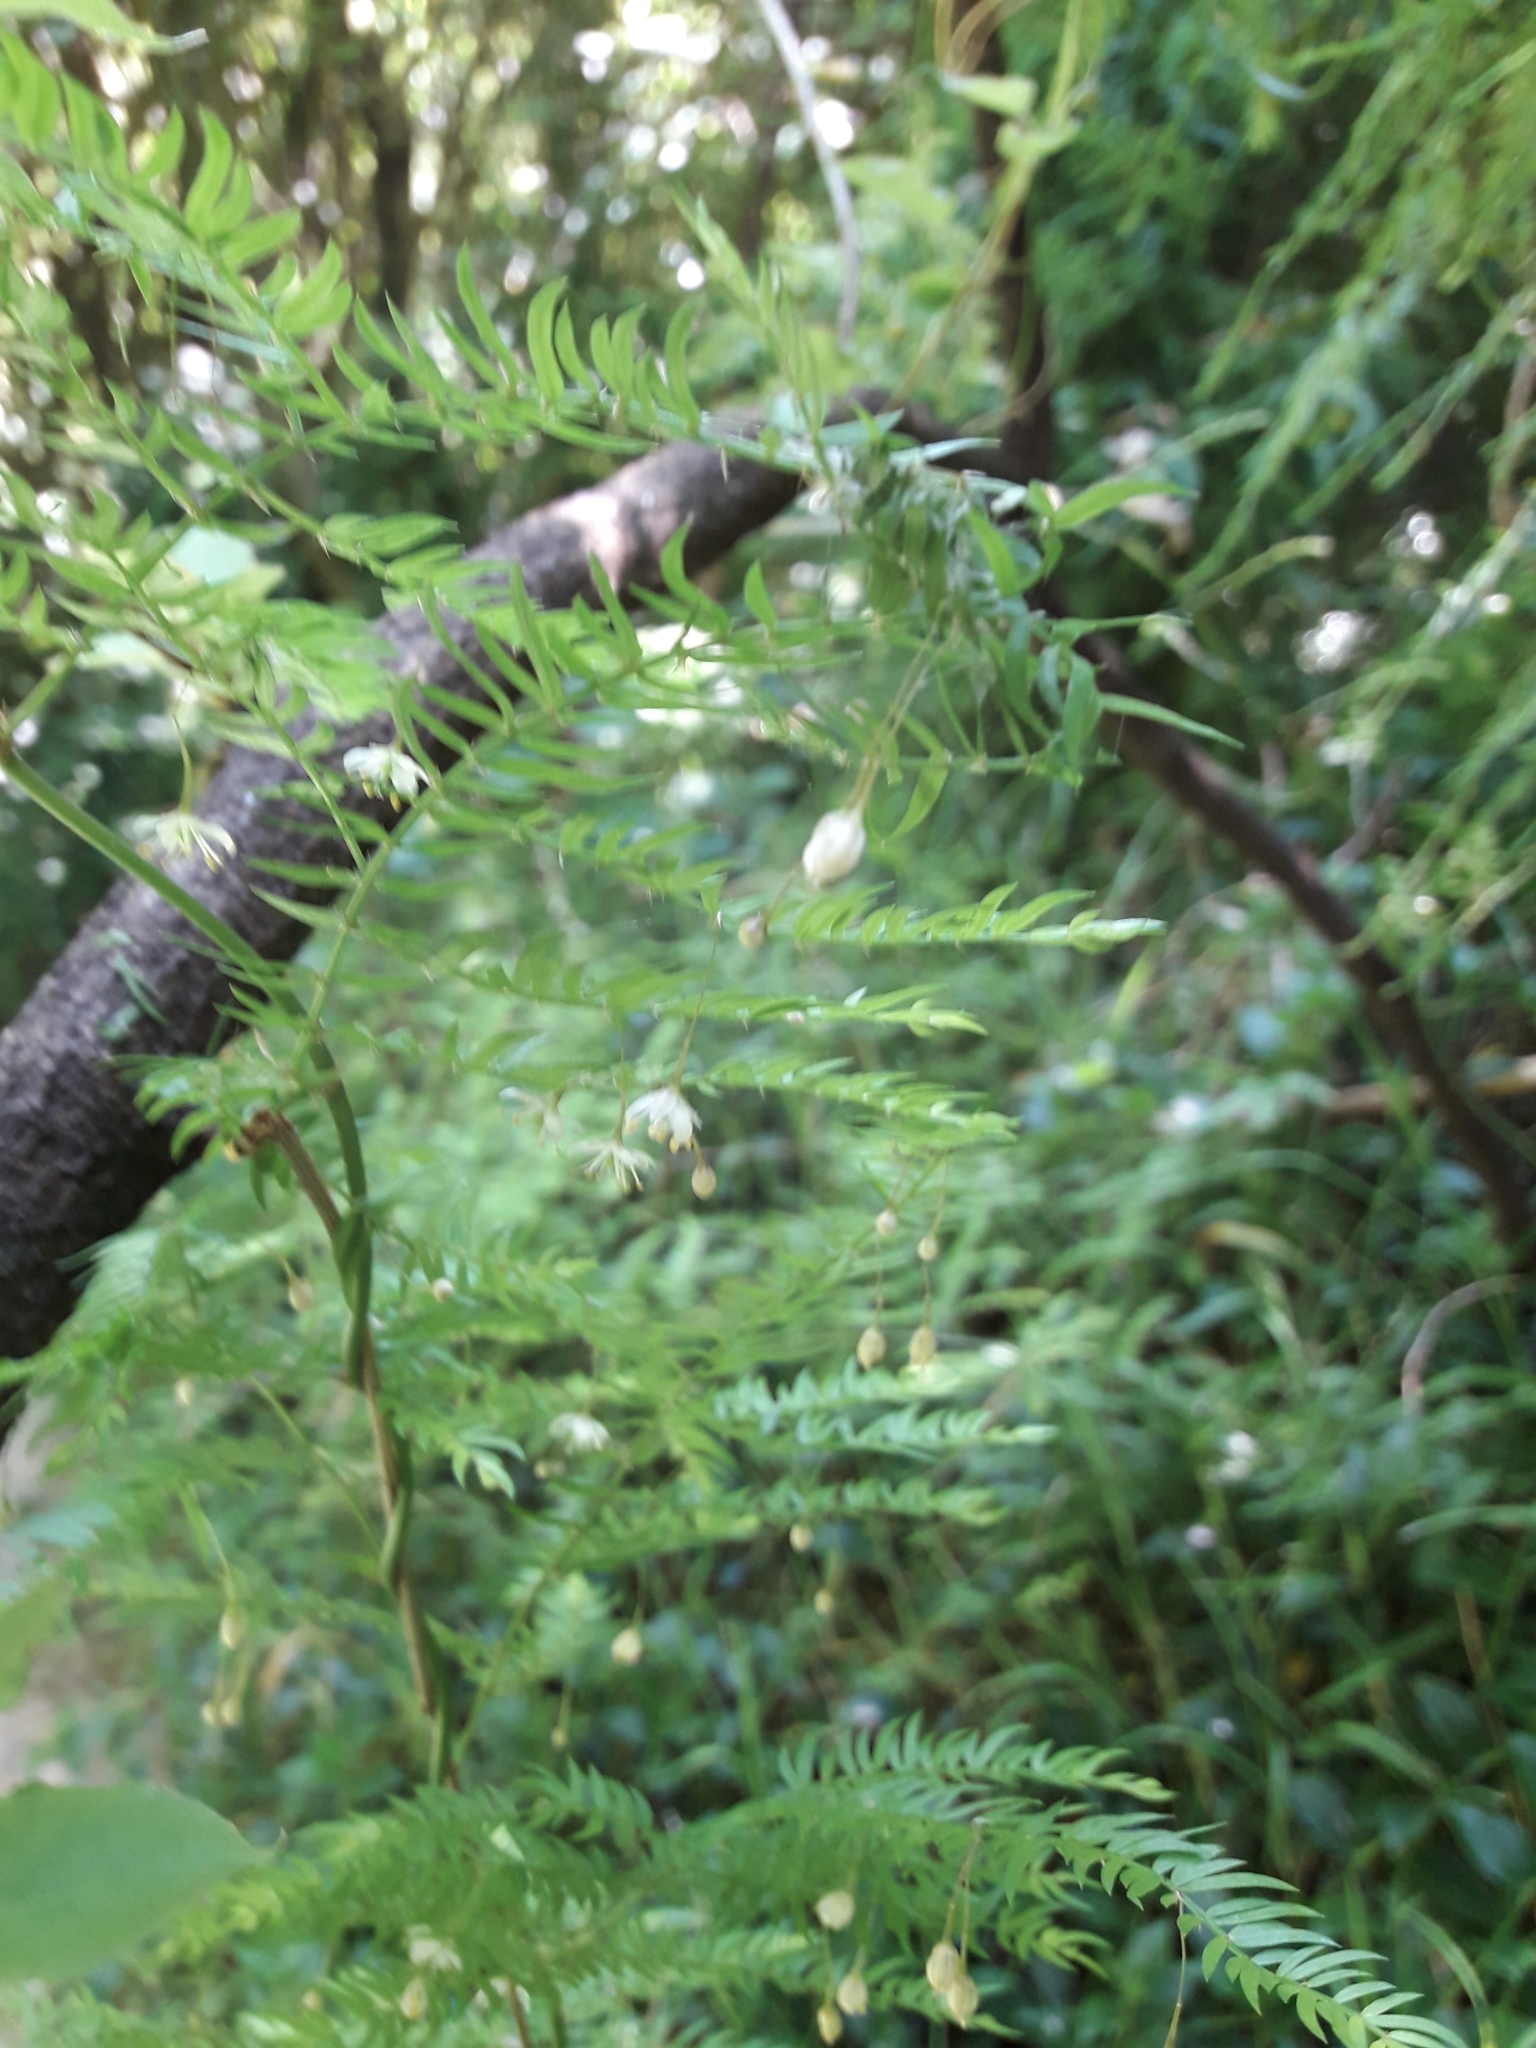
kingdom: Plantae
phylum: Tracheophyta
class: Liliopsida
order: Asparagales
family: Asparagaceae
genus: Asparagus
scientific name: Asparagus scandens
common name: Asparagus-fern
